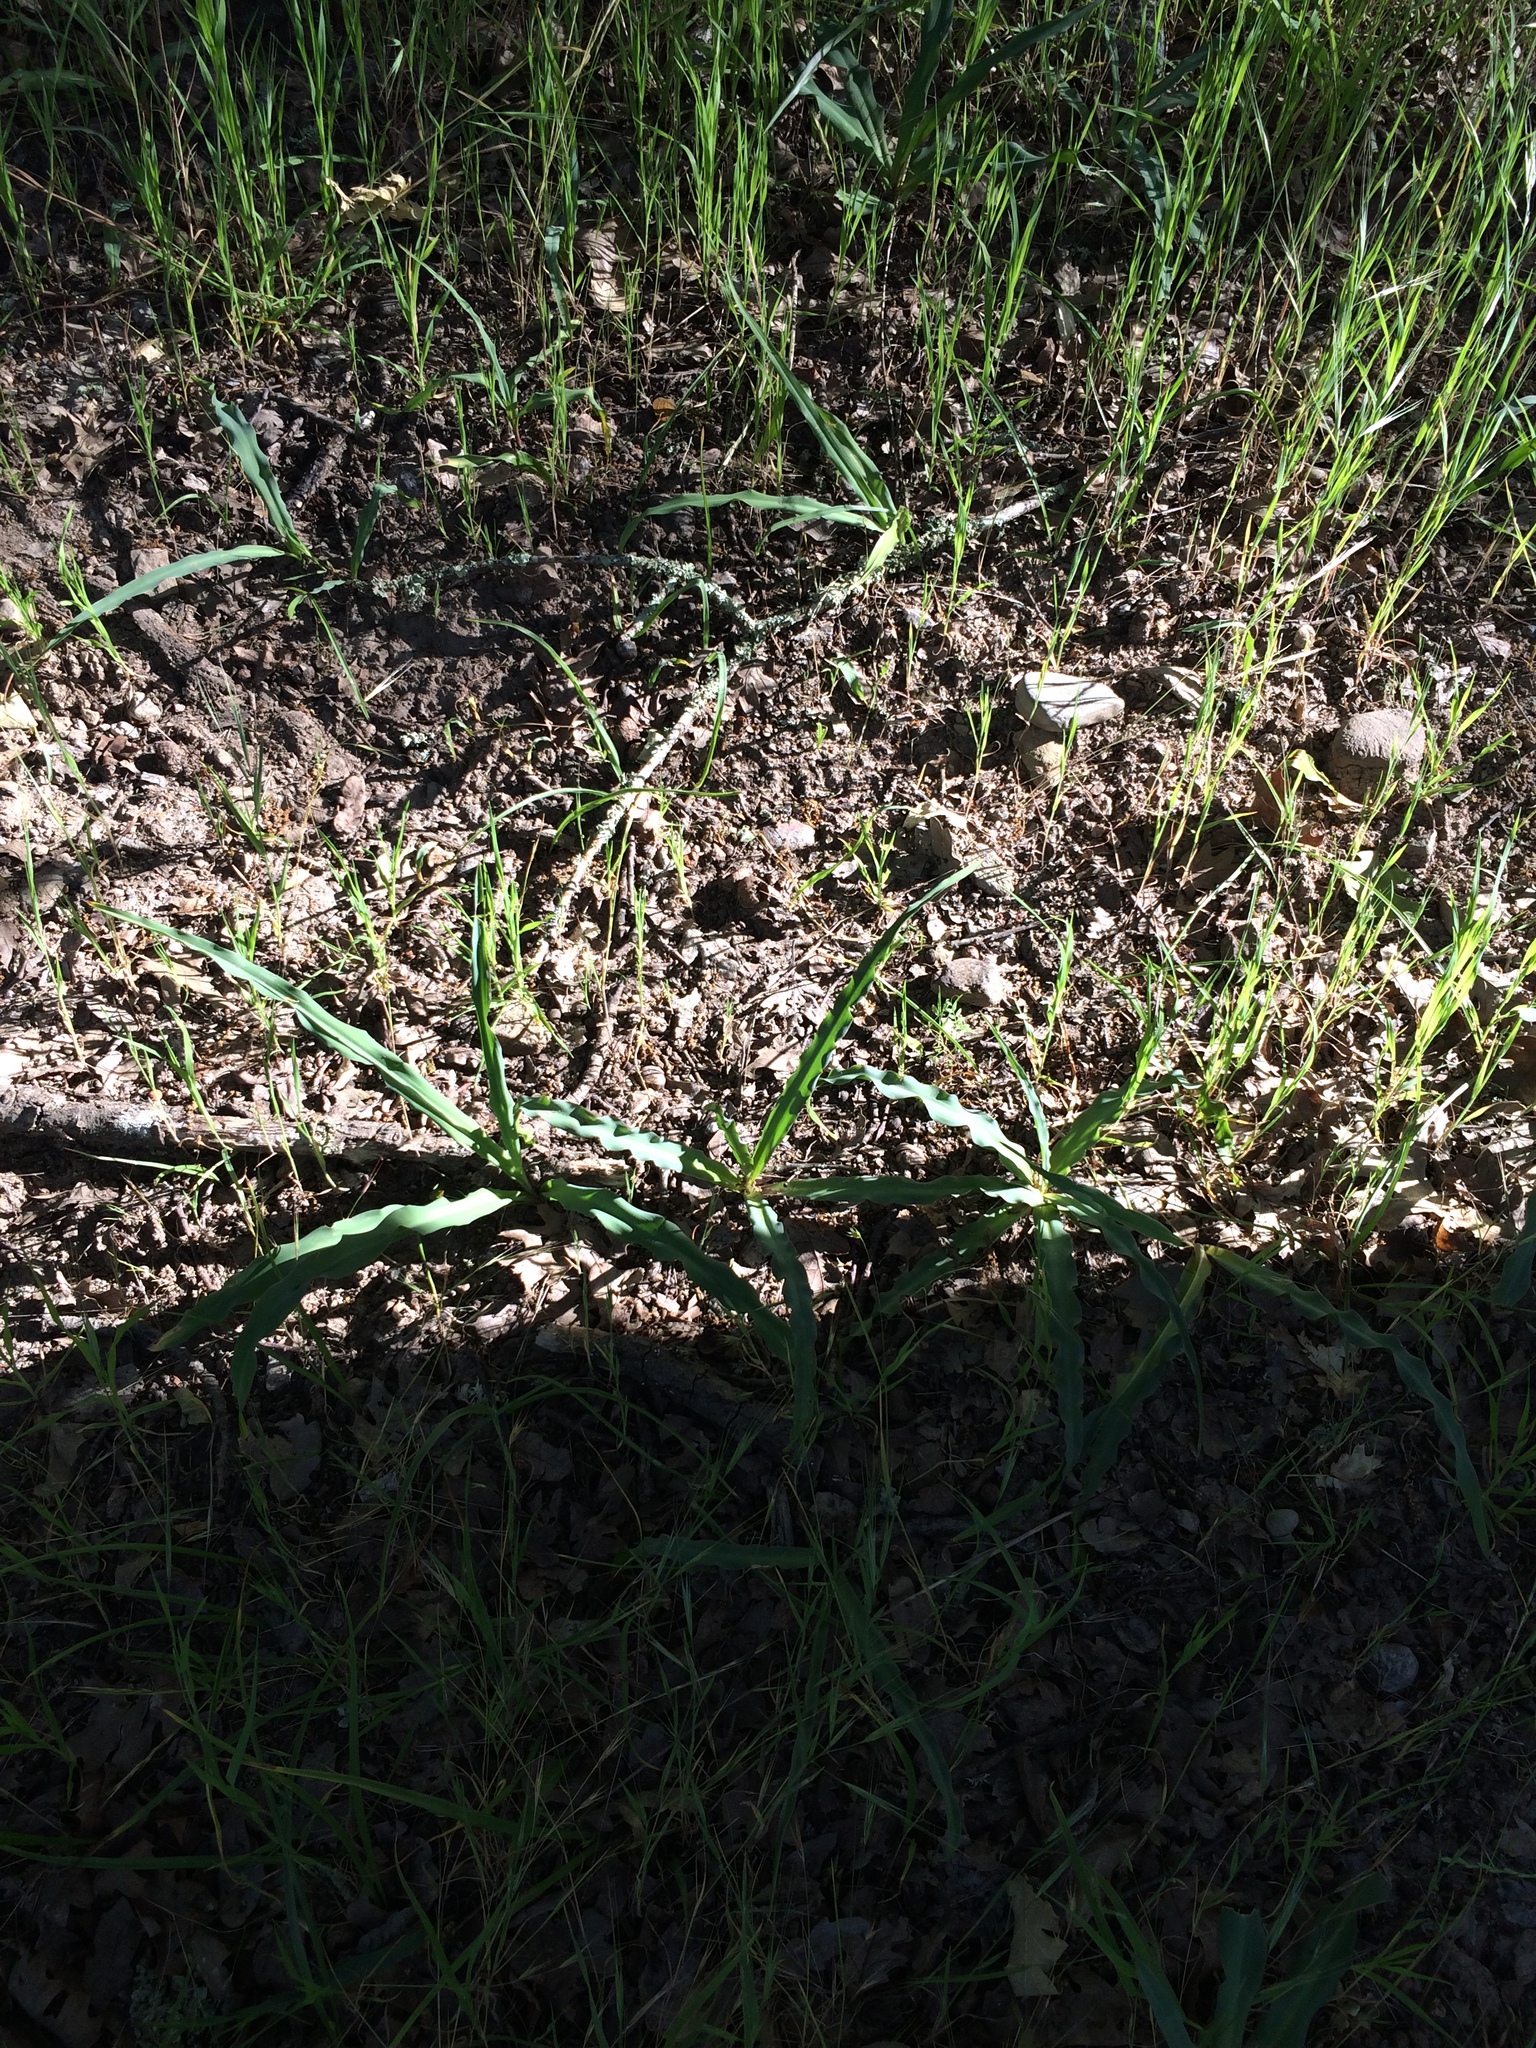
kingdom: Plantae
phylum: Tracheophyta
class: Liliopsida
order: Asparagales
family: Asparagaceae
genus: Chlorogalum
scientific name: Chlorogalum pomeridianum
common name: Amole
